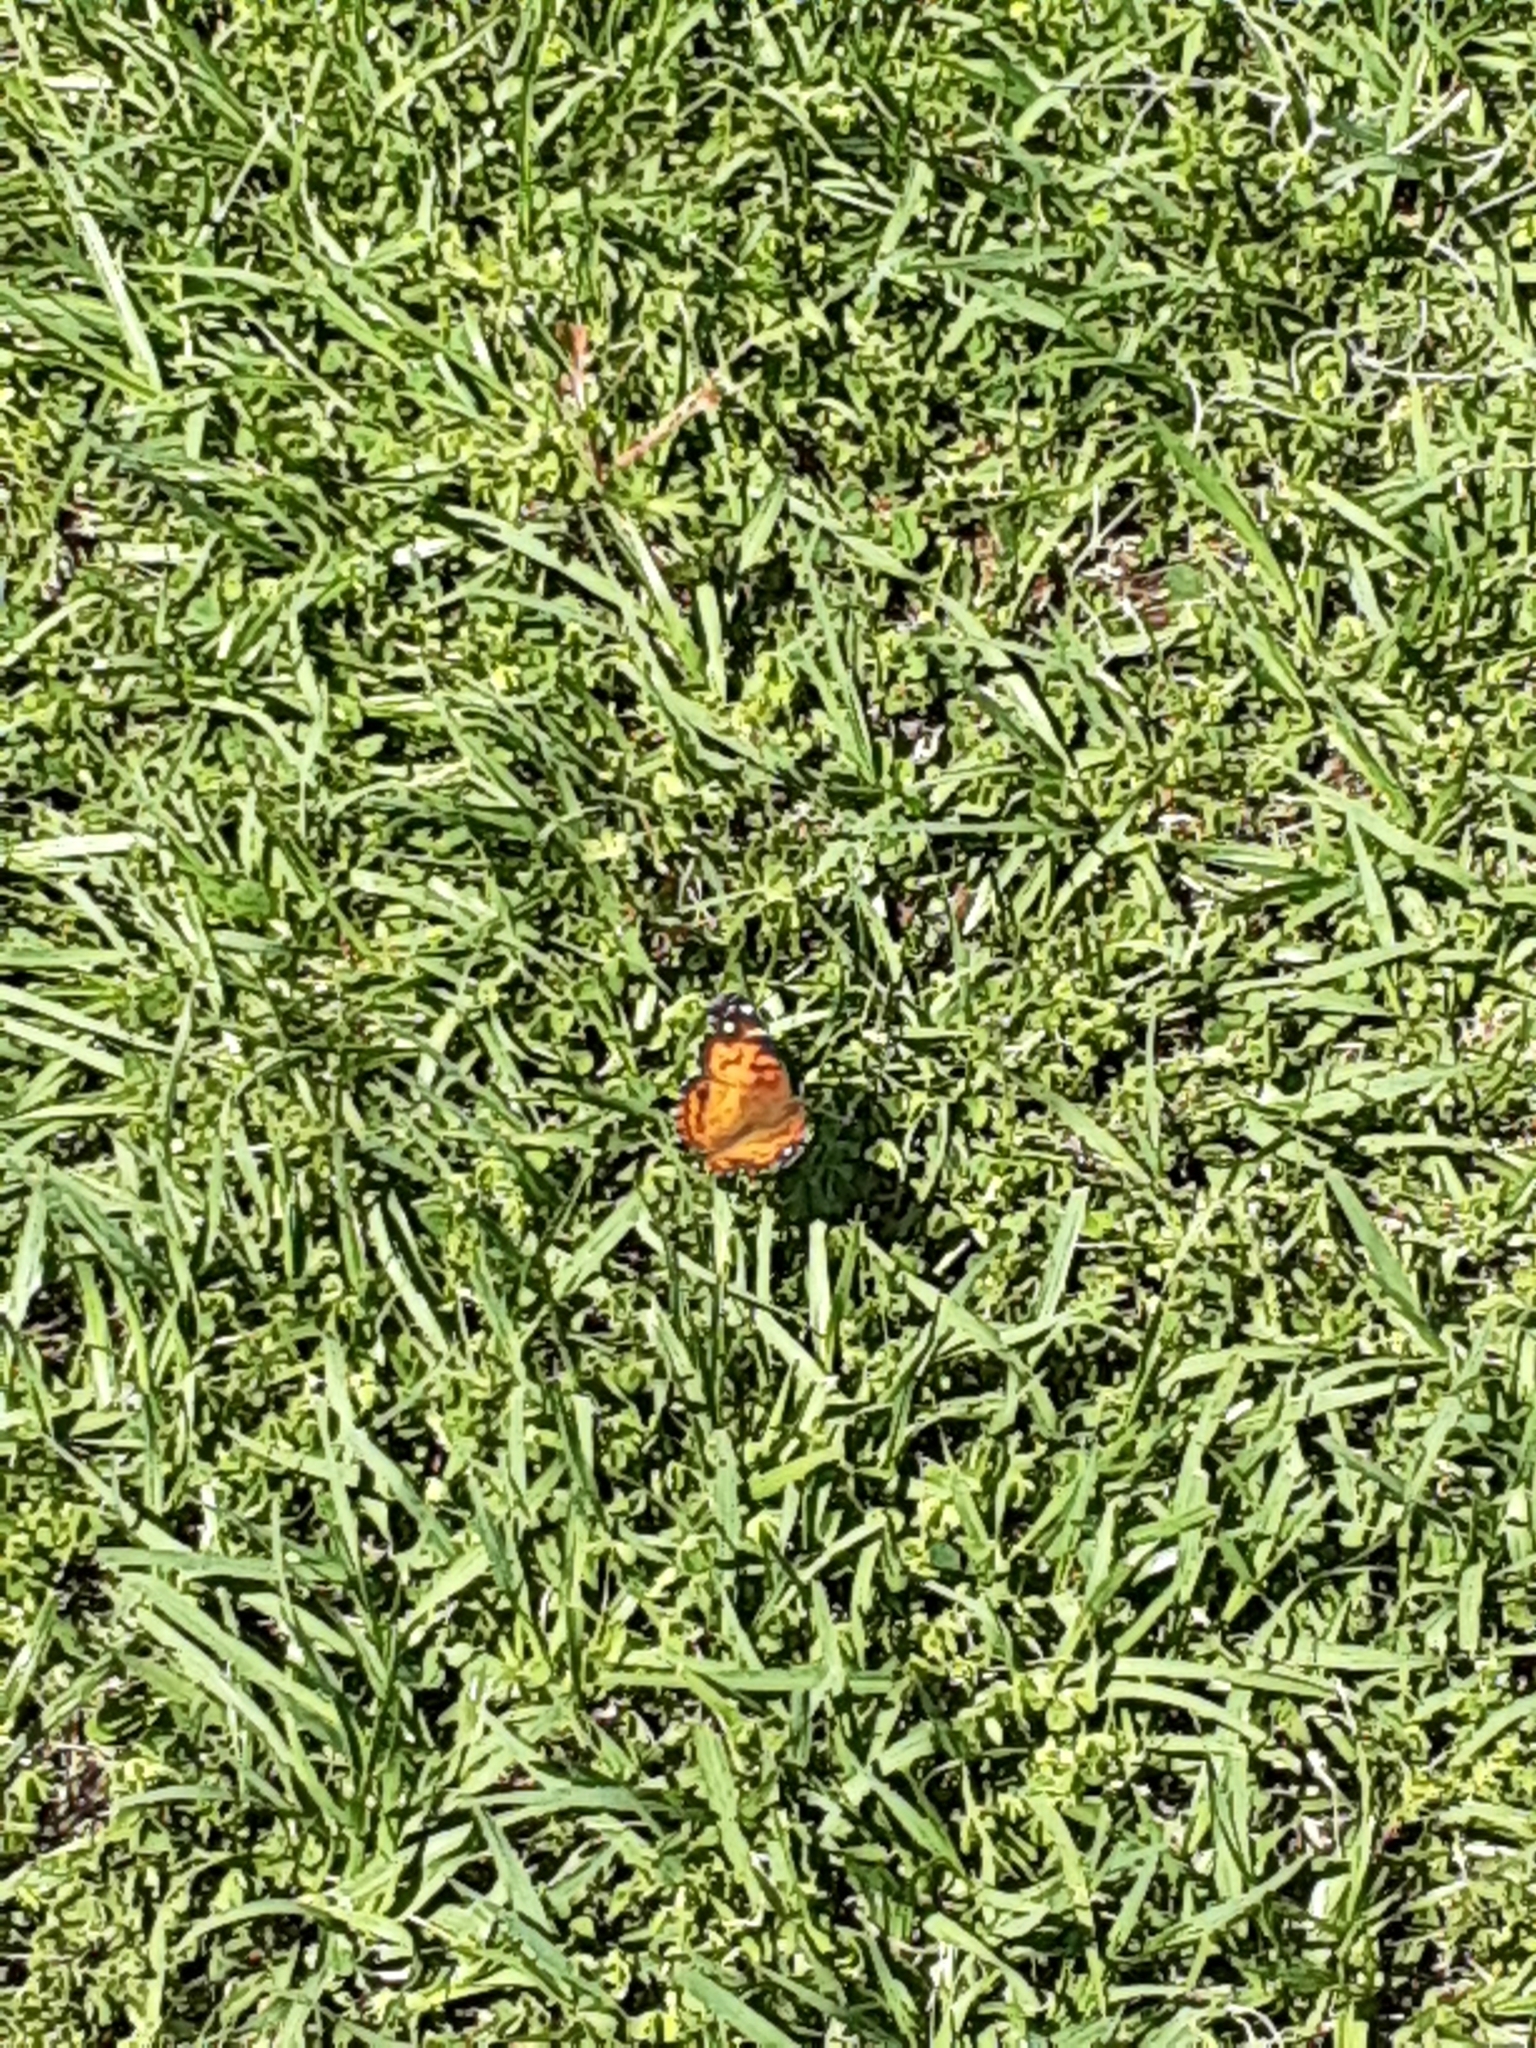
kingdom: Animalia
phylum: Arthropoda
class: Insecta
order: Lepidoptera
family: Nymphalidae
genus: Vanessa
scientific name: Vanessa virginiensis
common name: American lady
